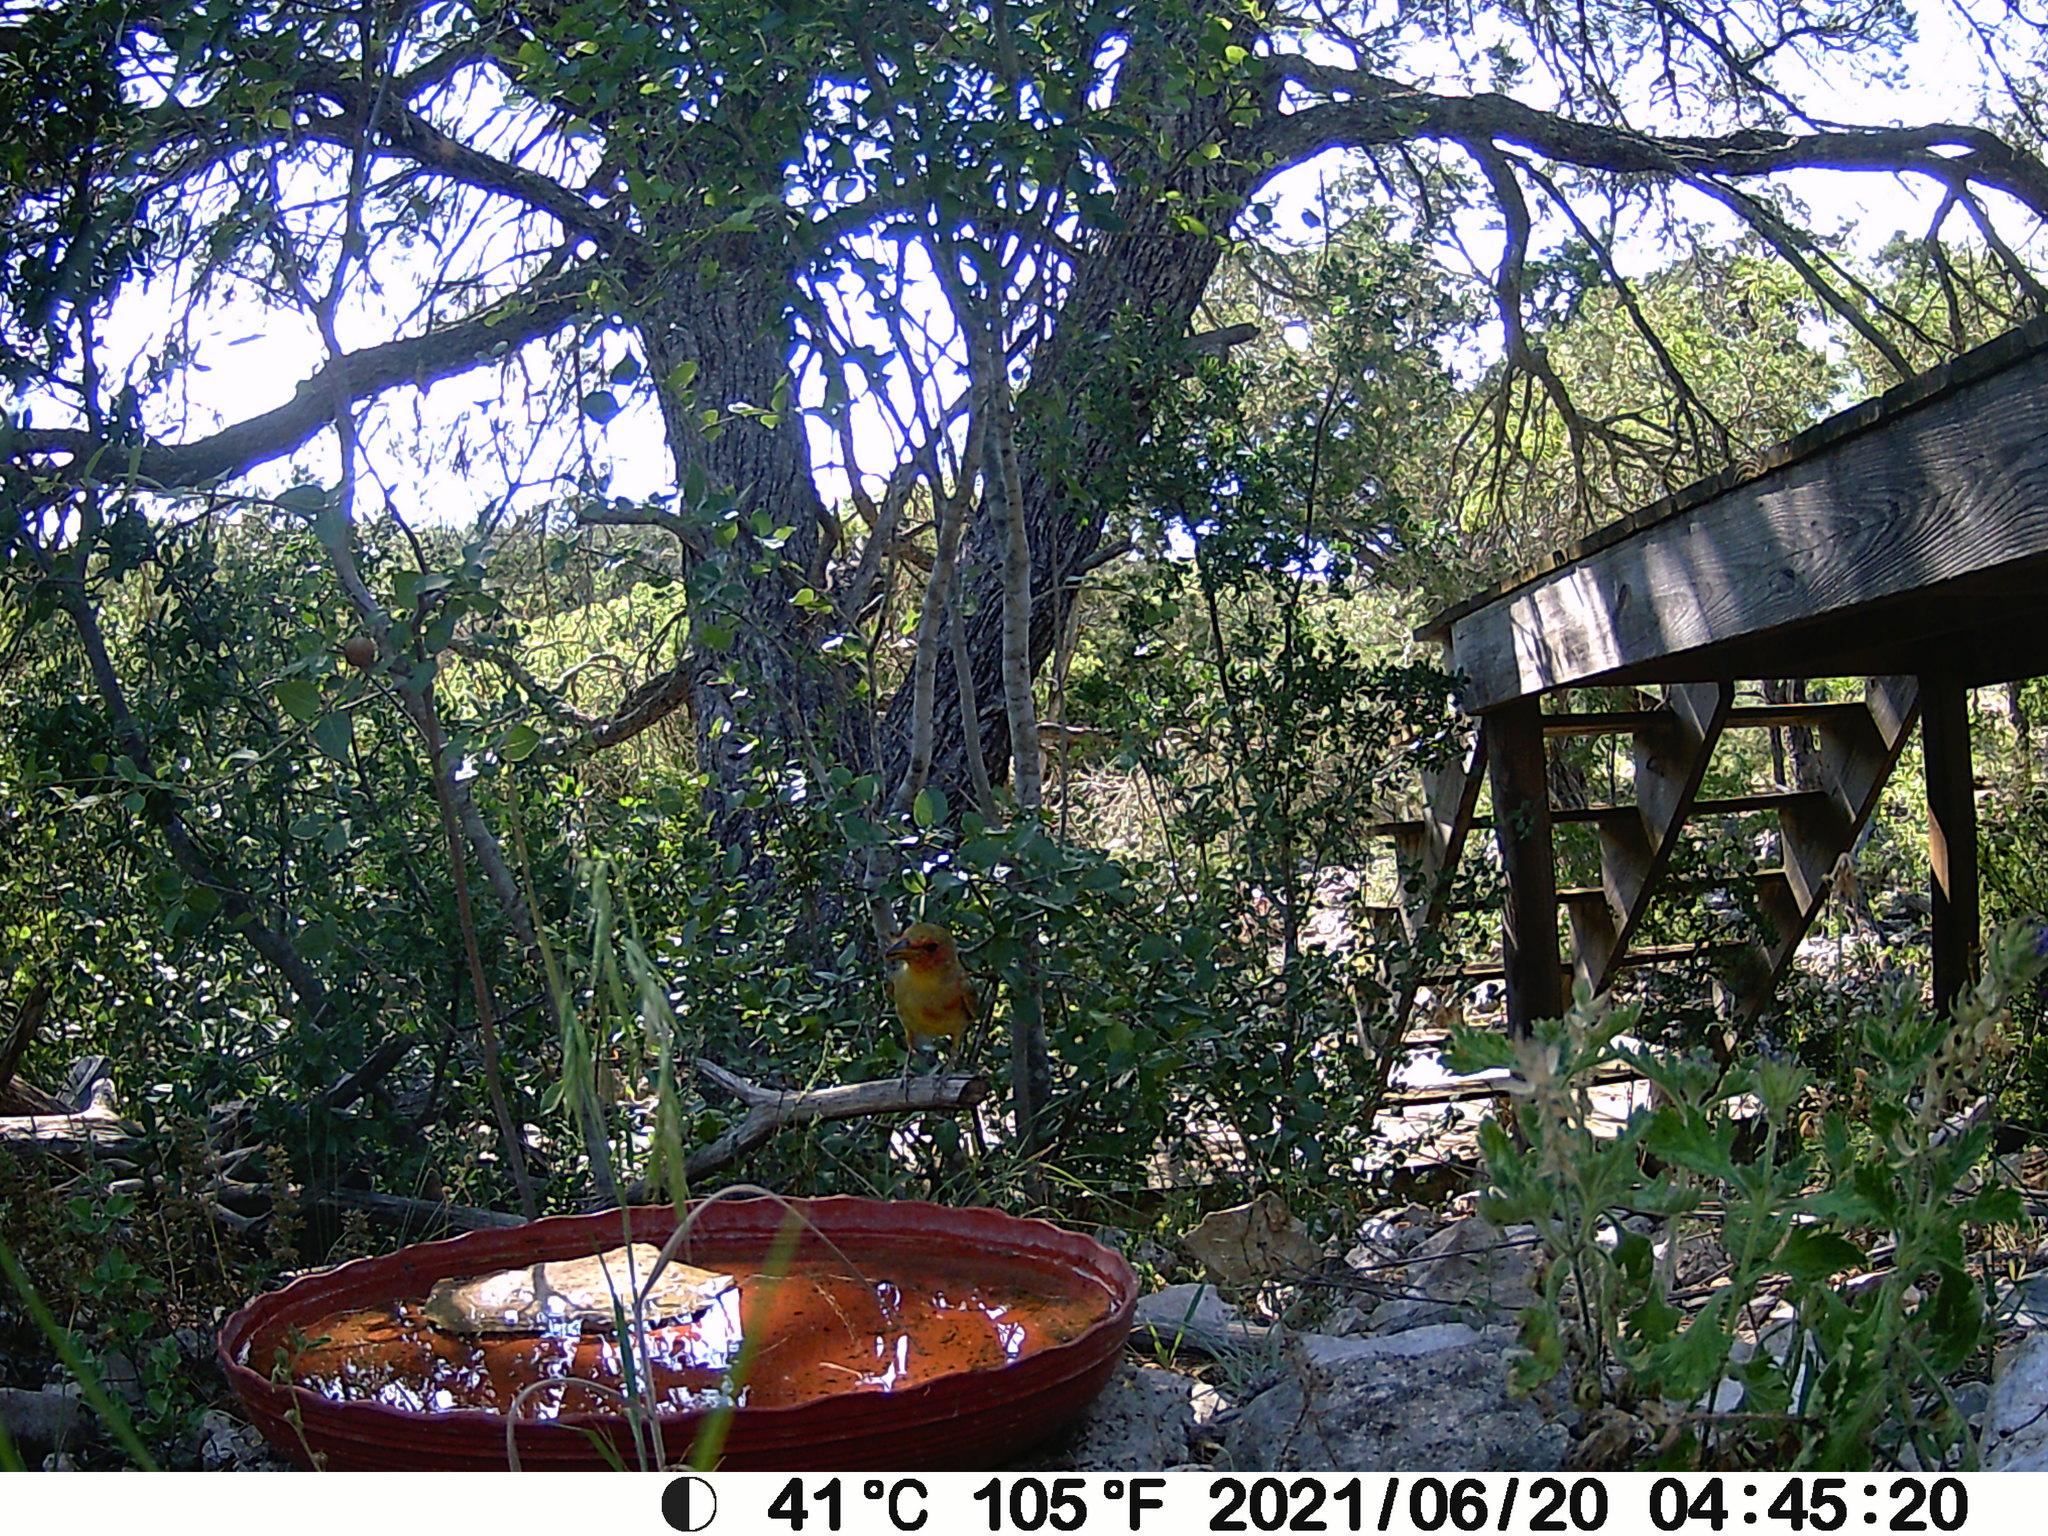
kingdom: Animalia
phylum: Chordata
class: Aves
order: Passeriformes
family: Cardinalidae
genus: Piranga
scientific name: Piranga rubra
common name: Summer tanager
